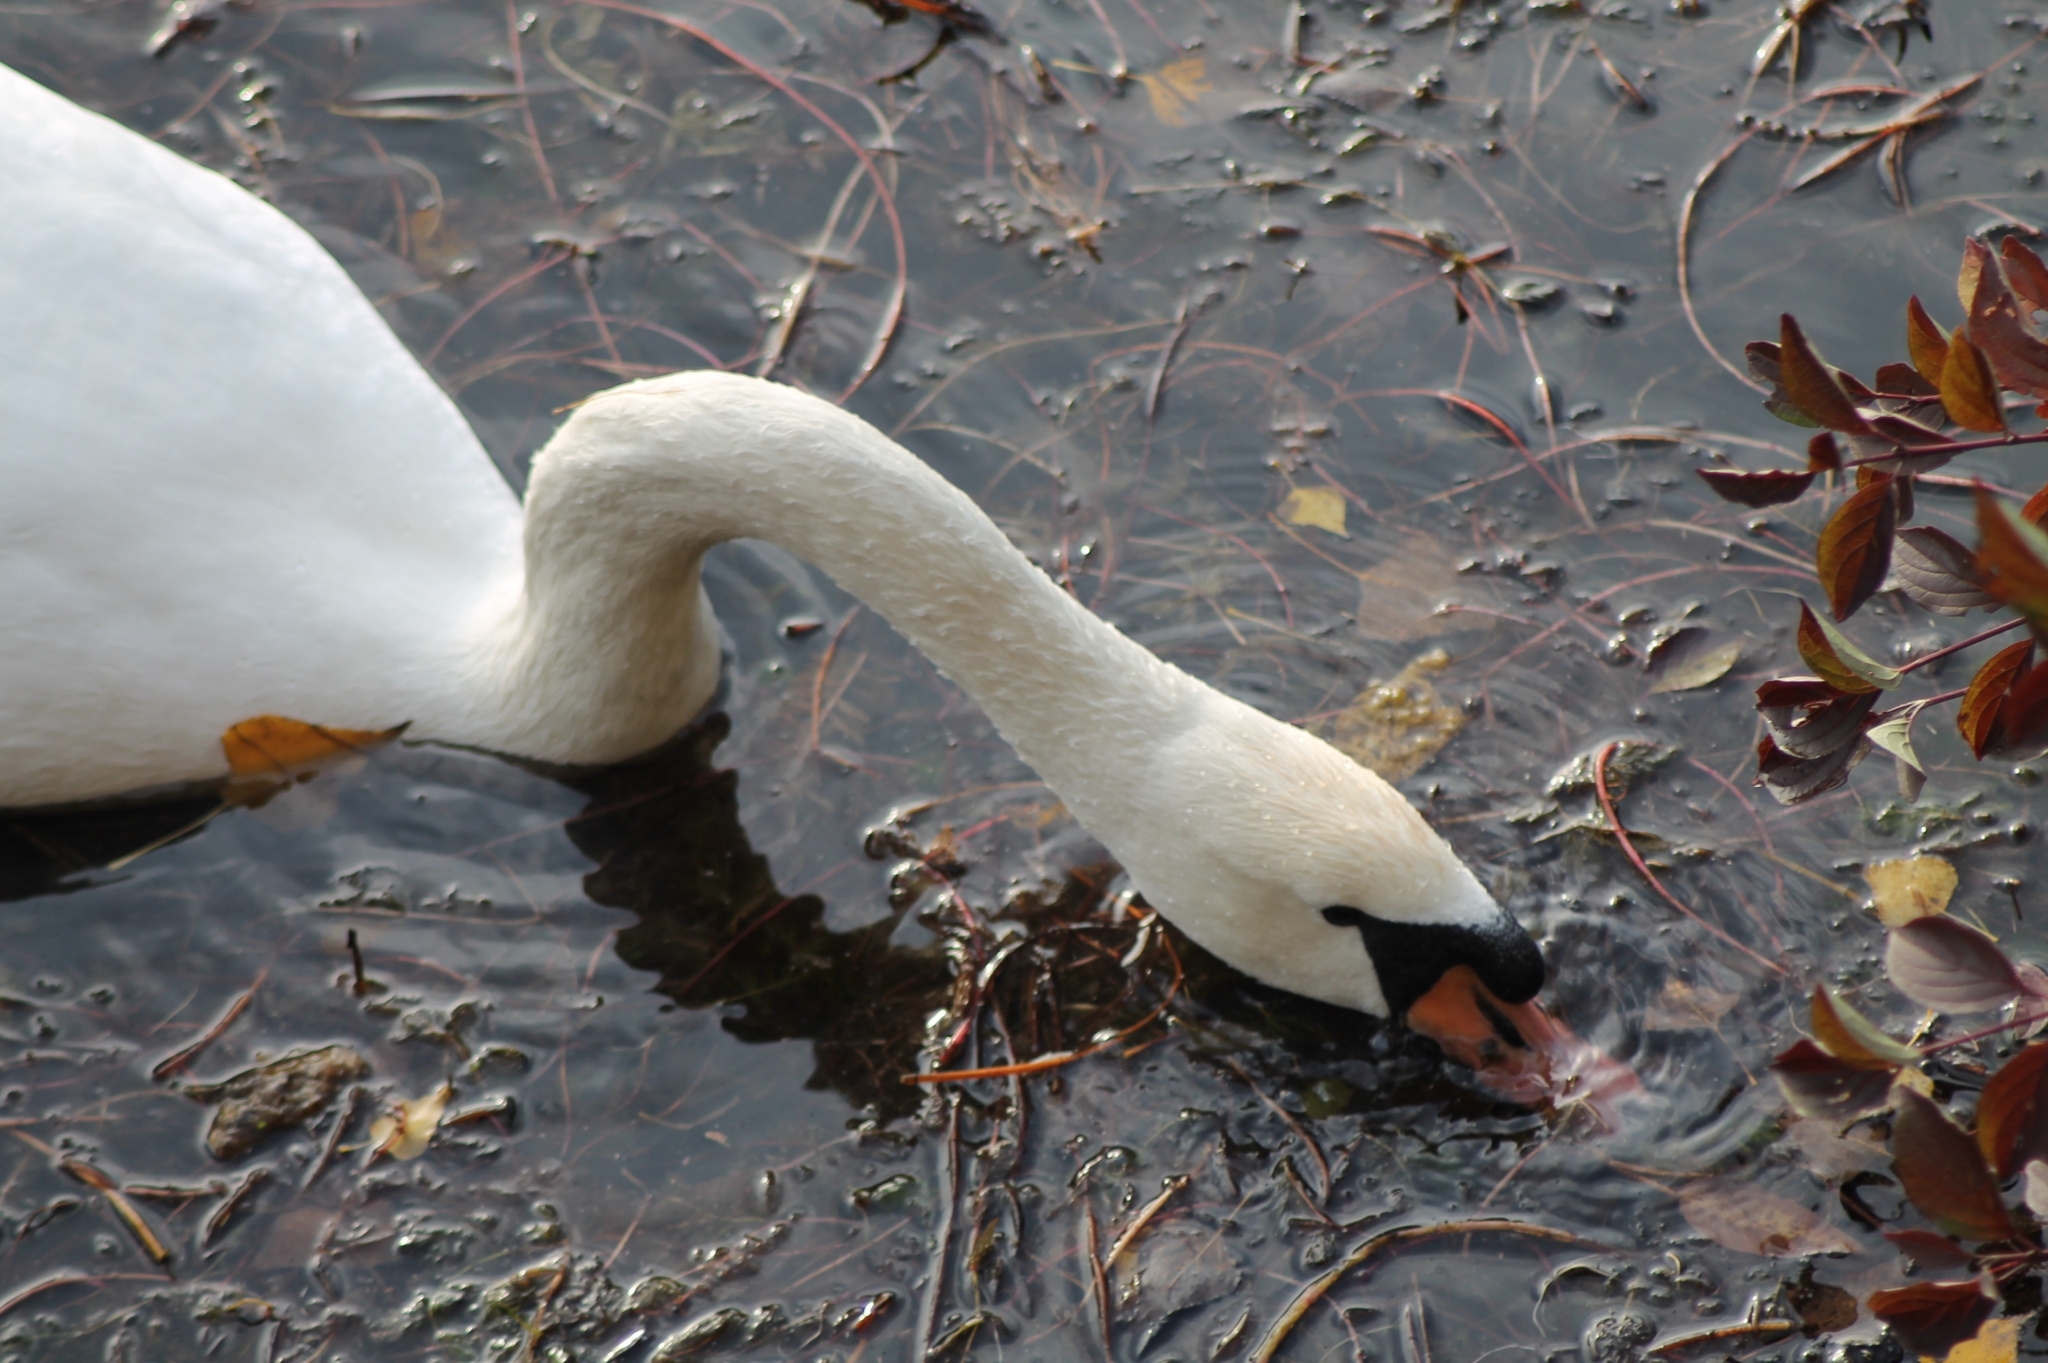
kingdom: Animalia
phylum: Chordata
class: Aves
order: Anseriformes
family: Anatidae
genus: Cygnus
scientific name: Cygnus olor
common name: Mute swan
